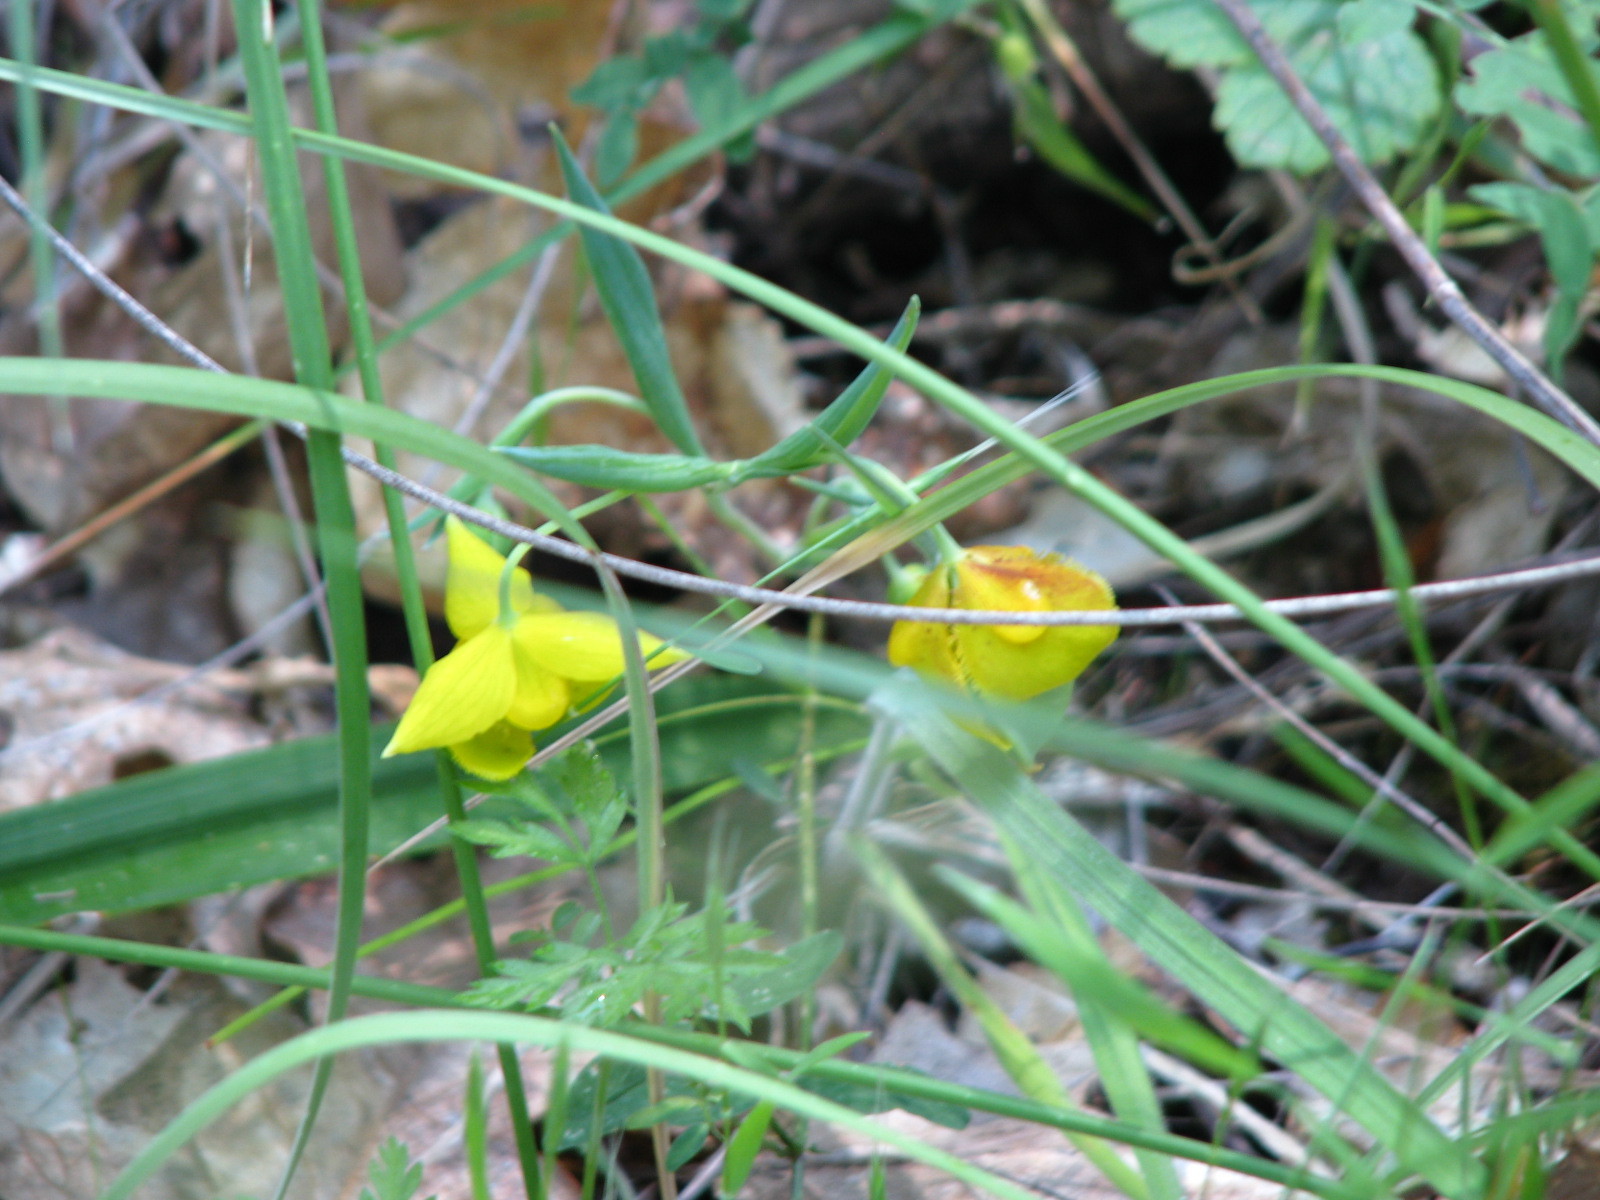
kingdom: Plantae
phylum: Tracheophyta
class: Liliopsida
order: Liliales
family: Liliaceae
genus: Calochortus
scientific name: Calochortus amabilis
